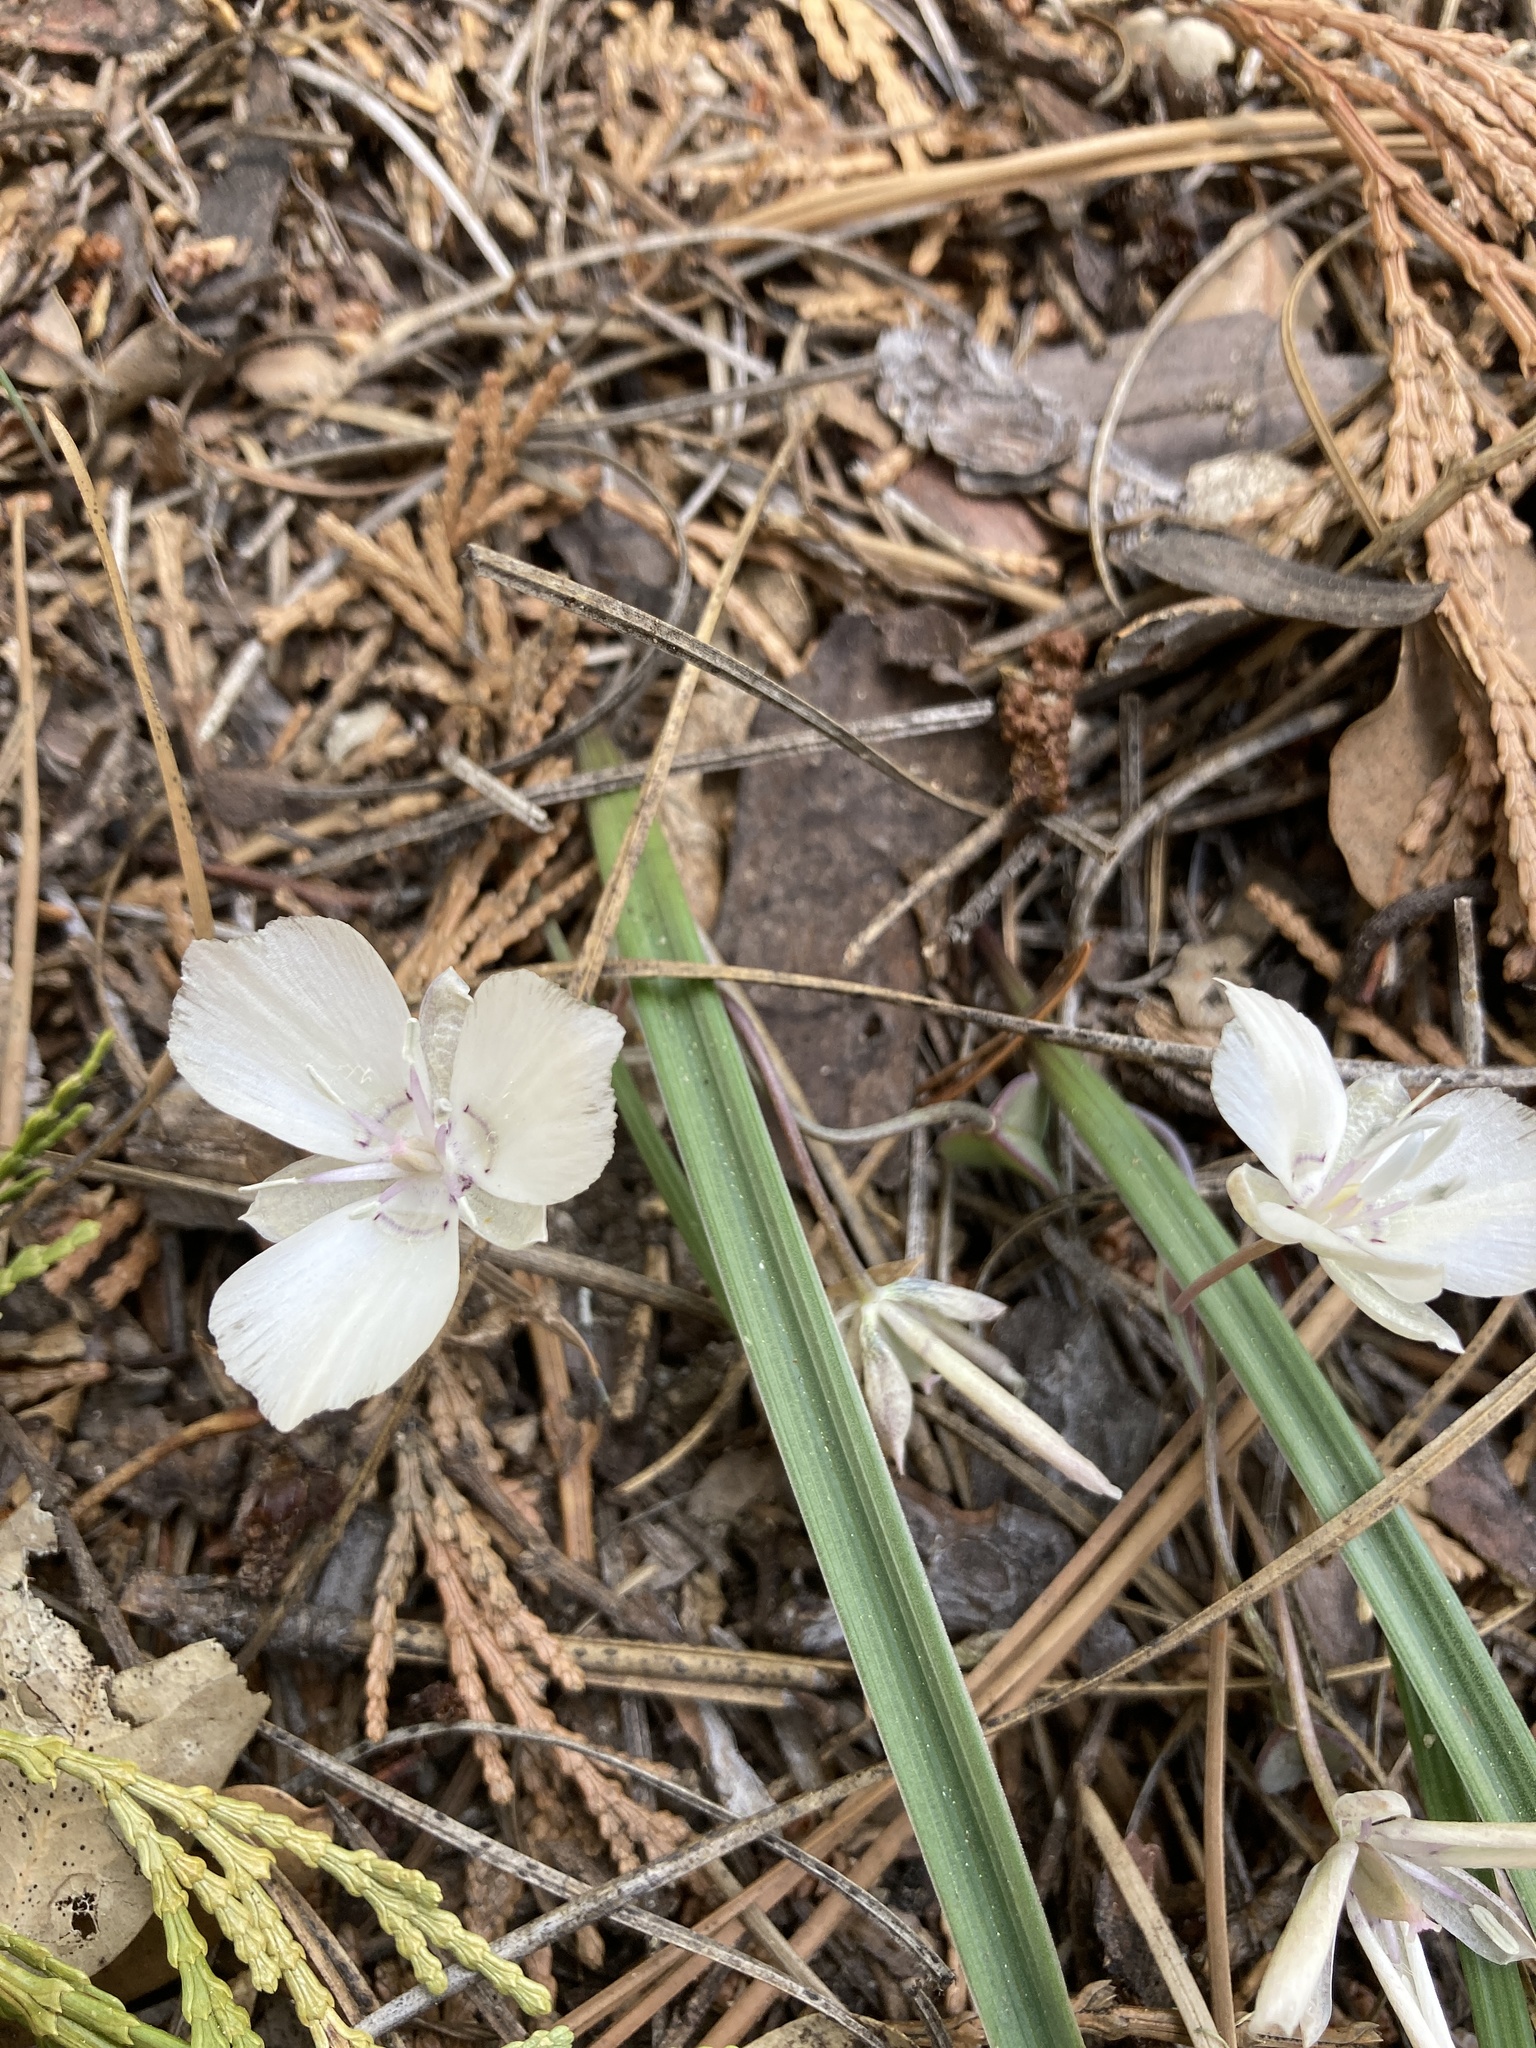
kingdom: Plantae
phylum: Tracheophyta
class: Liliopsida
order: Liliales
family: Liliaceae
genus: Calochortus
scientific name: Calochortus minimus
